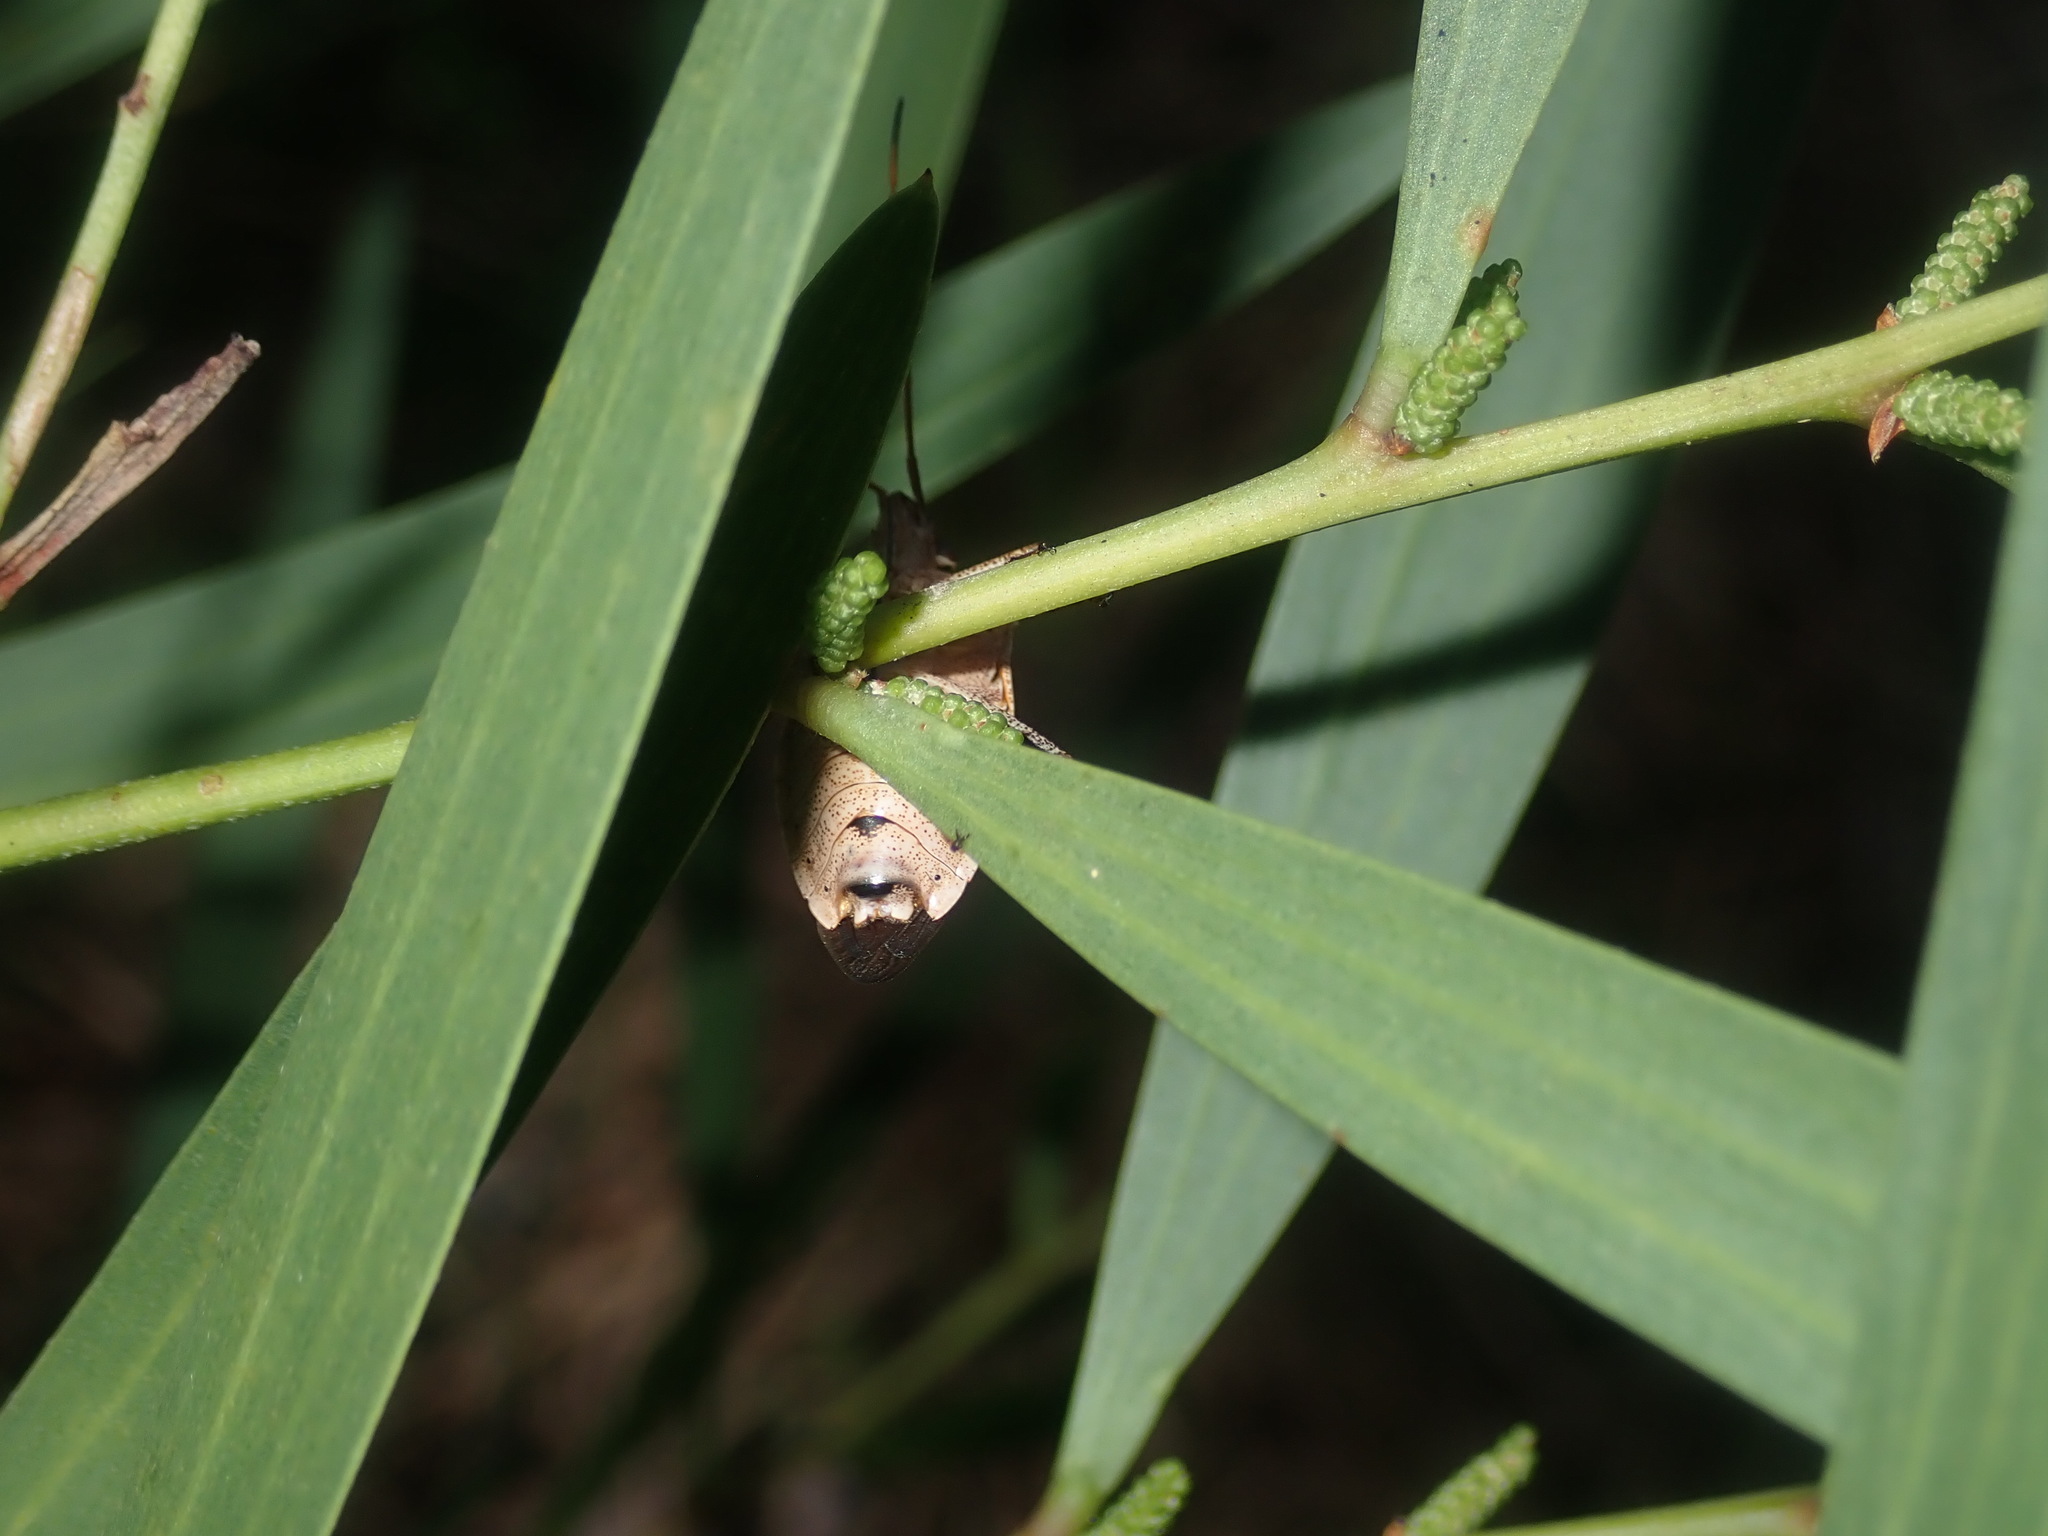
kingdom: Animalia
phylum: Arthropoda
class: Insecta
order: Hemiptera
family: Pentatomidae
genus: Poecilometis
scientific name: Poecilometis
